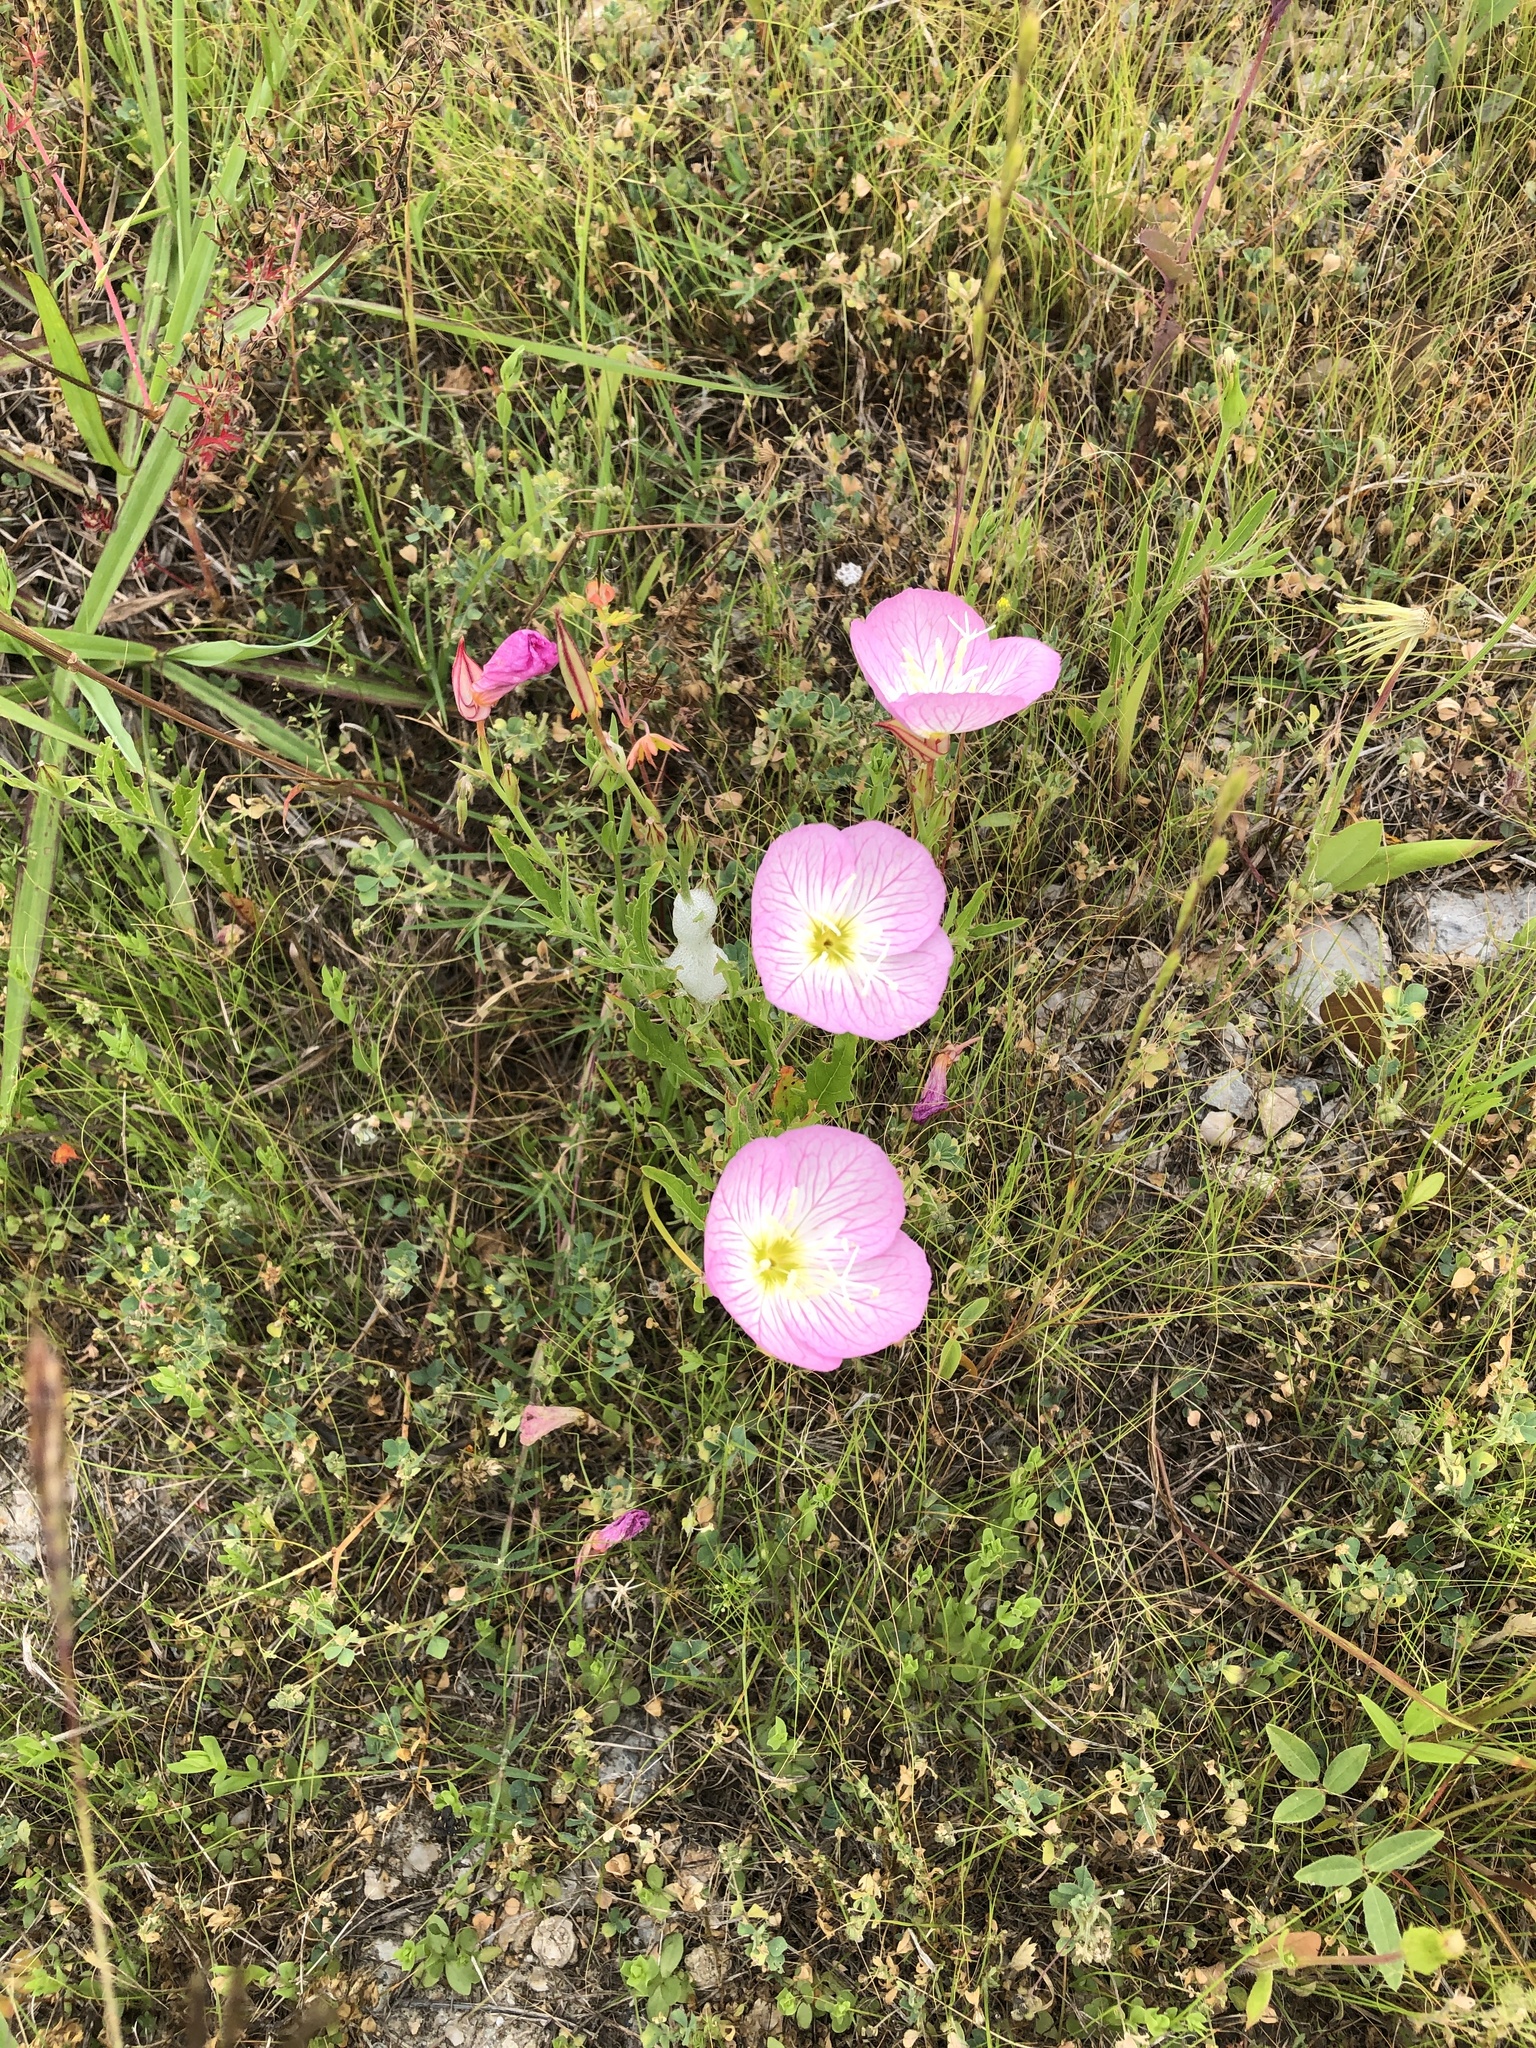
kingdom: Plantae
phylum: Tracheophyta
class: Magnoliopsida
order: Myrtales
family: Onagraceae
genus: Oenothera
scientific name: Oenothera speciosa
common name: White evening-primrose
